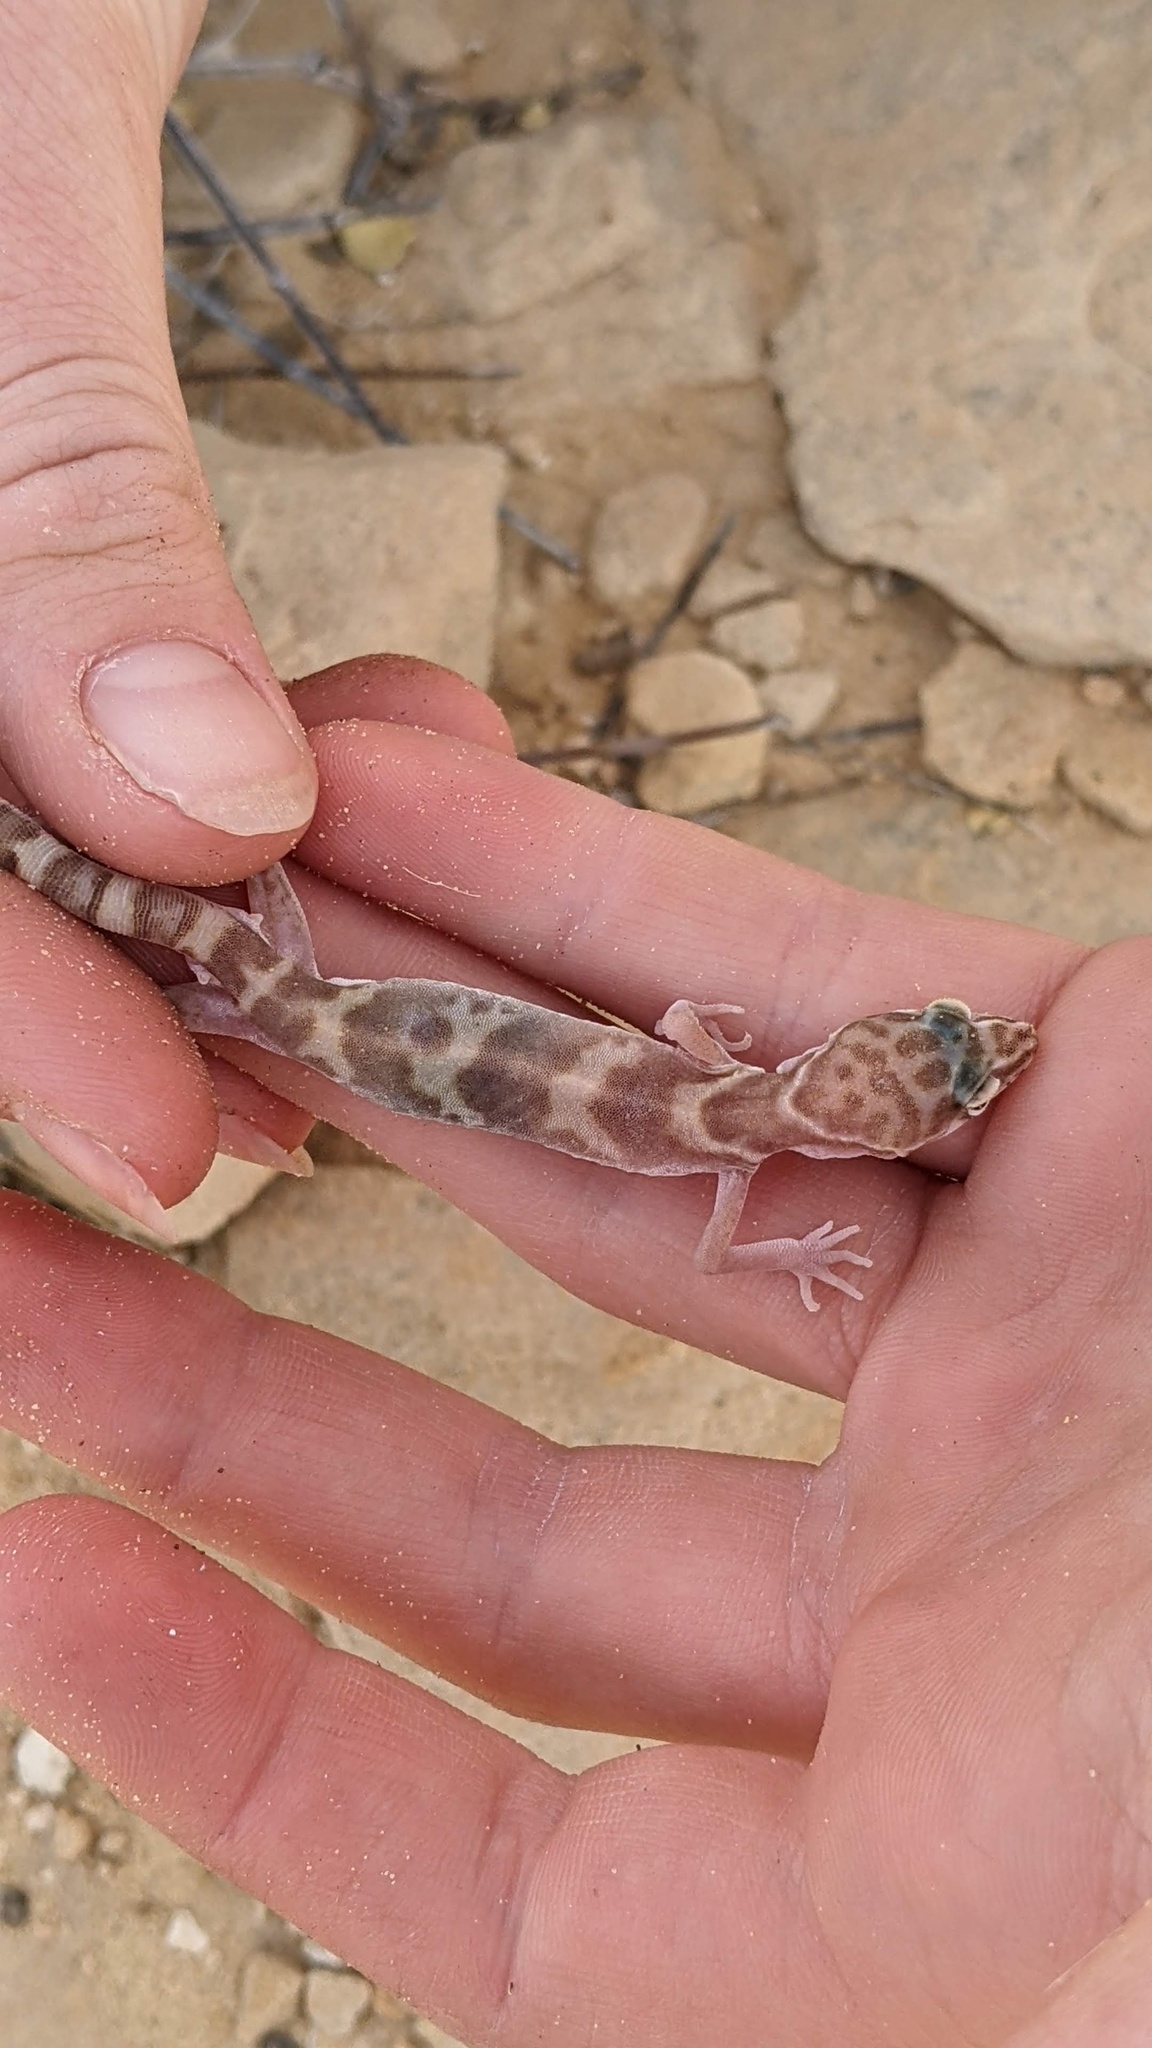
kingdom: Animalia
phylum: Chordata
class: Squamata
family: Eublepharidae
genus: Coleonyx
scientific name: Coleonyx variegatus
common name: Western banded gecko
